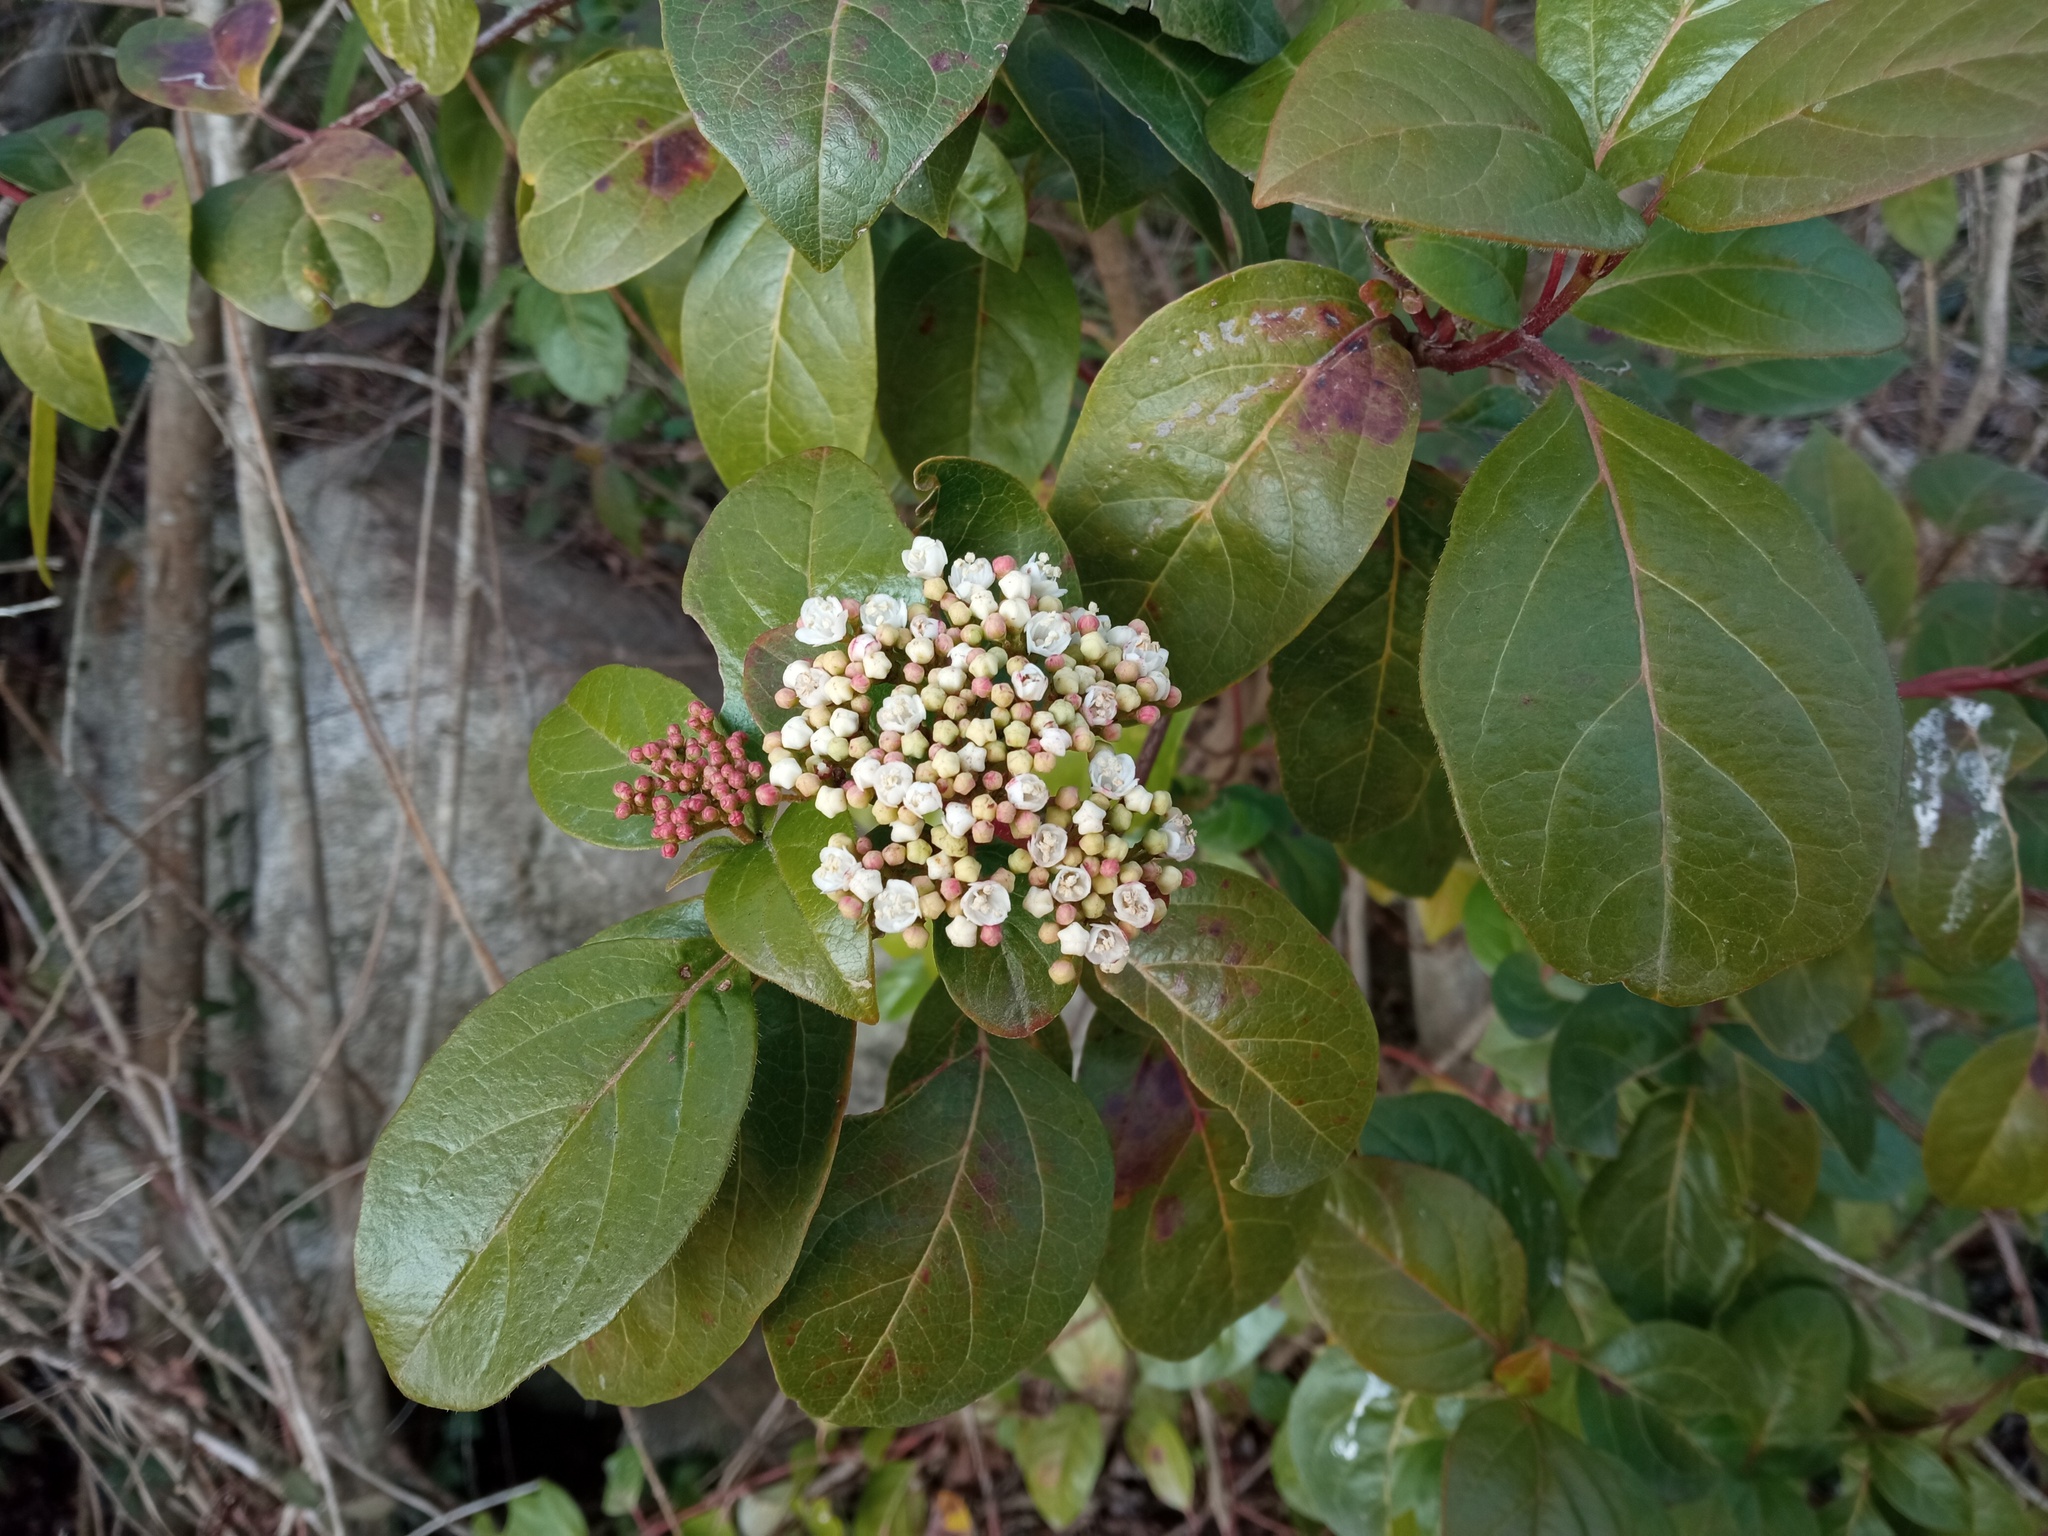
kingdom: Plantae
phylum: Tracheophyta
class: Magnoliopsida
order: Dipsacales
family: Viburnaceae
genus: Viburnum
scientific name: Viburnum tinus
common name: Laurustinus
